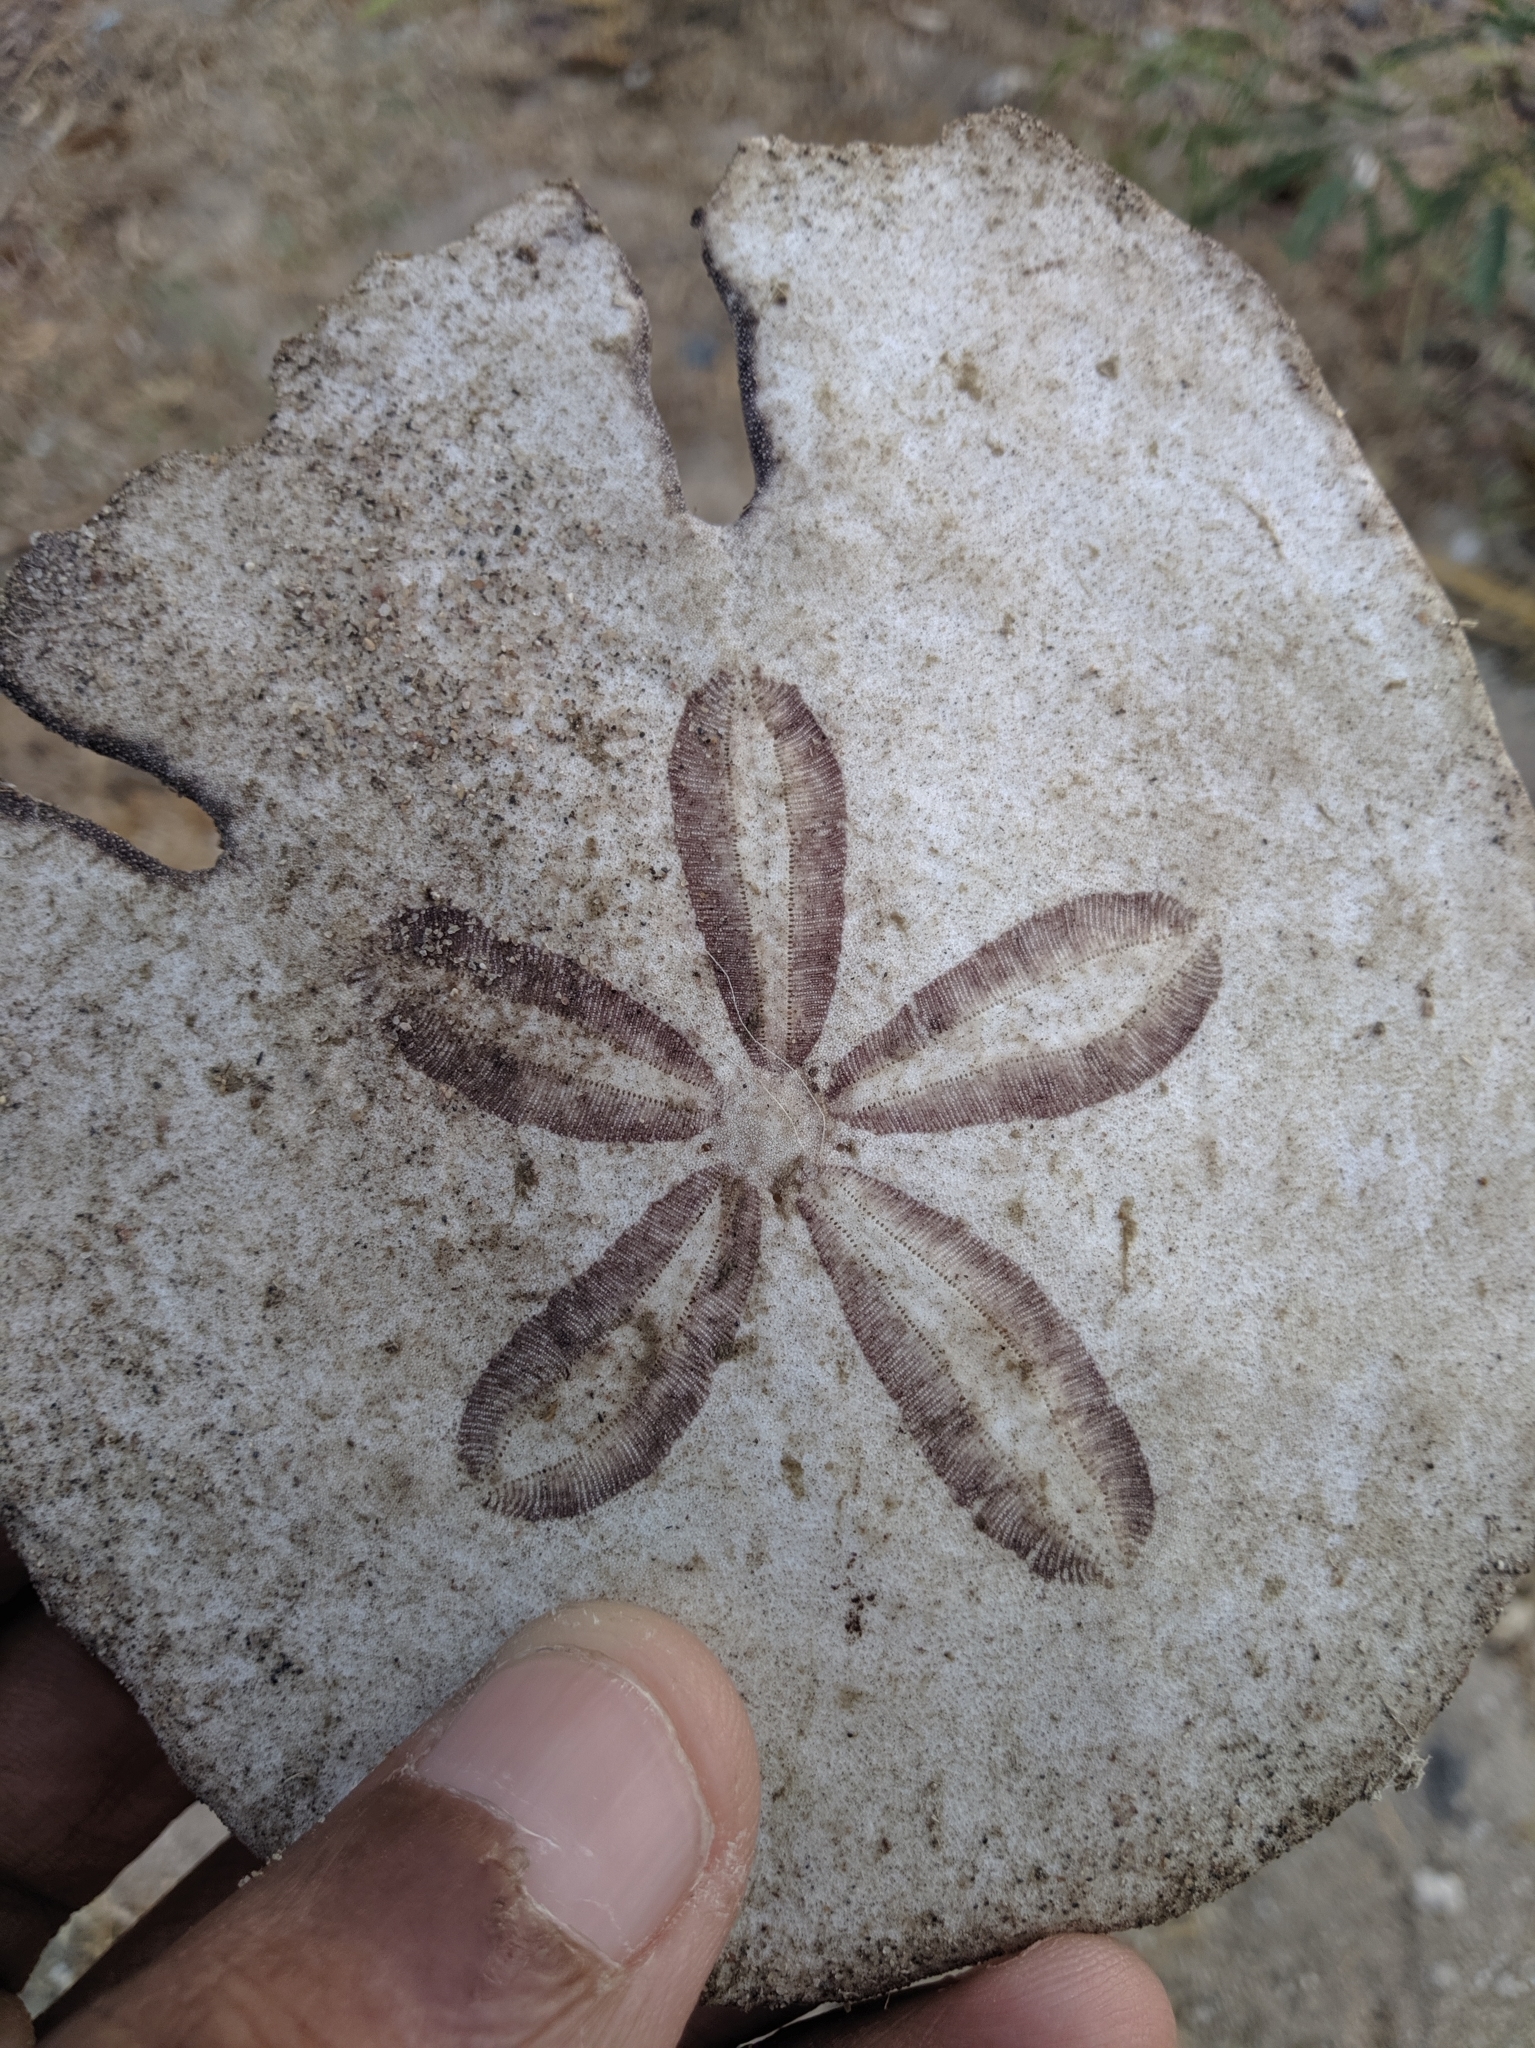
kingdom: Animalia
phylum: Echinodermata
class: Echinoidea
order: Echinolampadacea
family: Astriclypeidae
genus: Echinodiscus
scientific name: Echinodiscus
